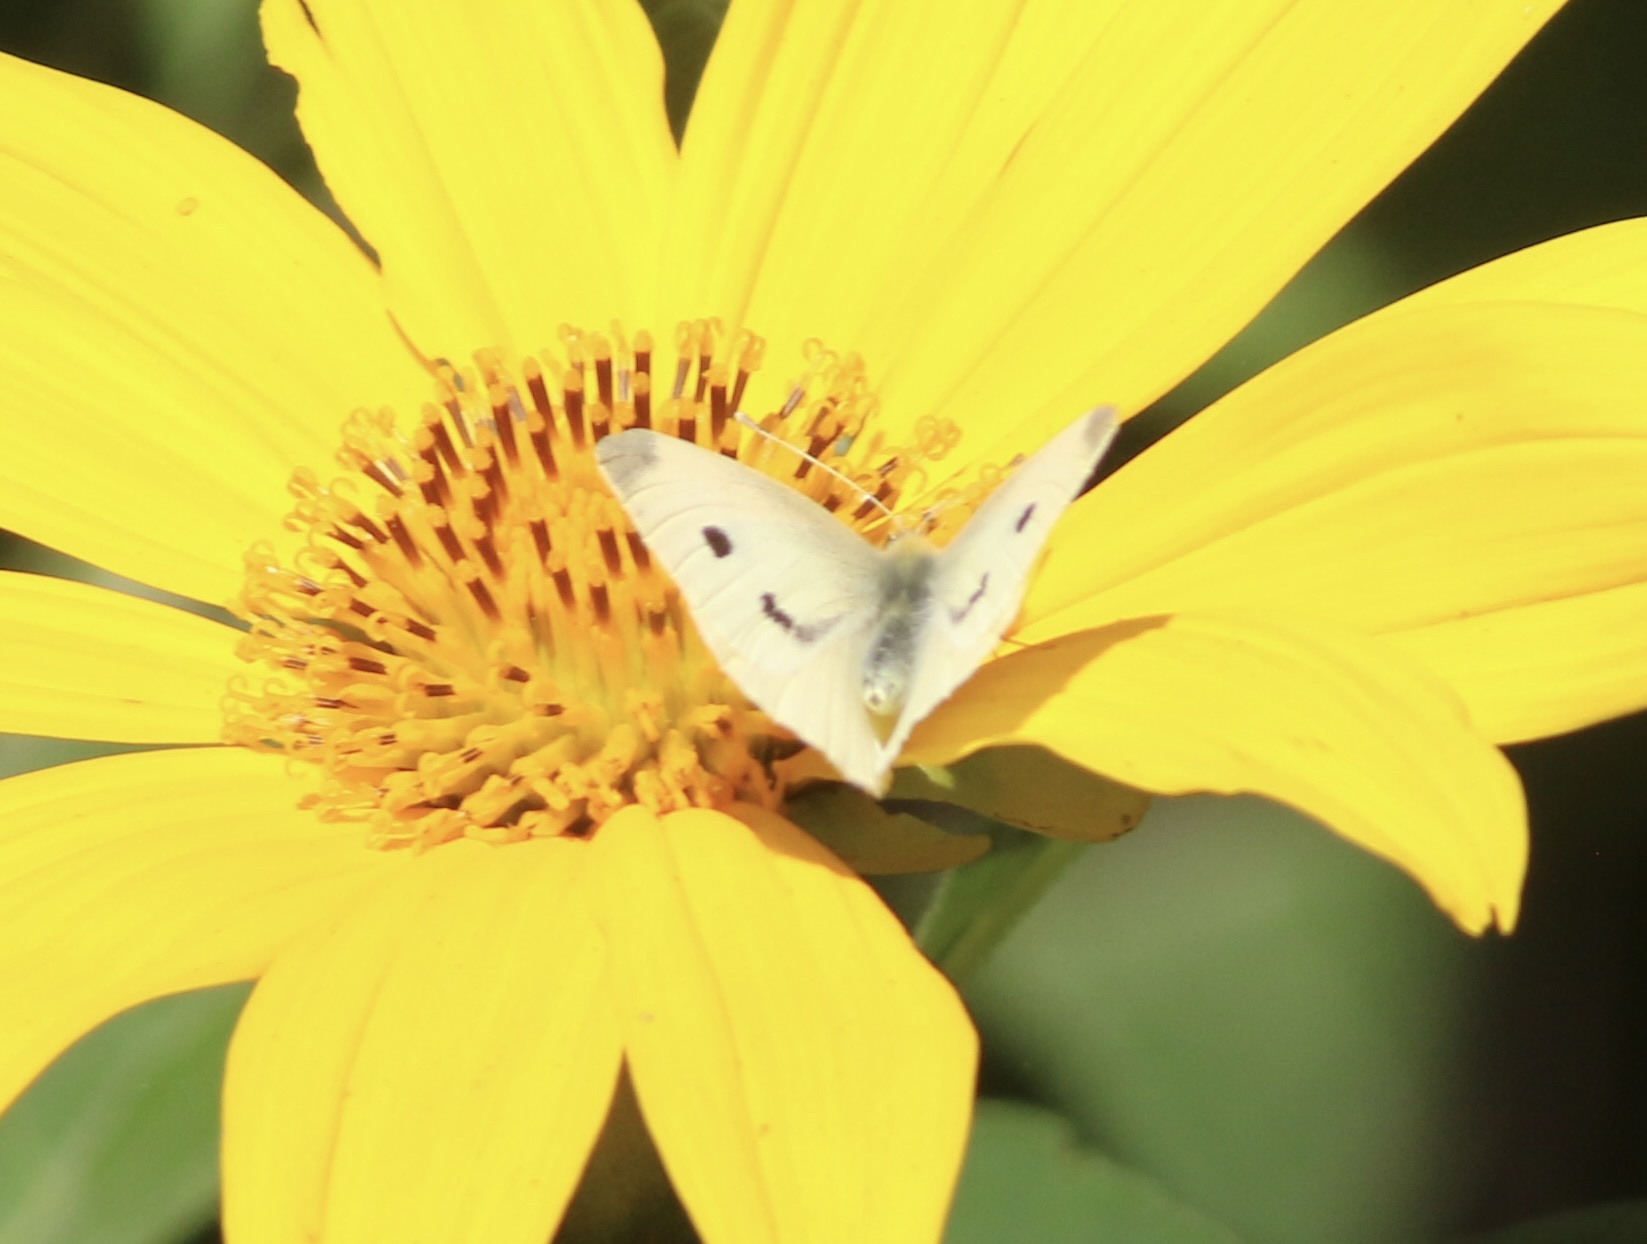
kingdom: Animalia
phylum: Arthropoda
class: Insecta
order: Lepidoptera
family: Pieridae
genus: Pieris
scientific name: Pieris rapae
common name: Small white
